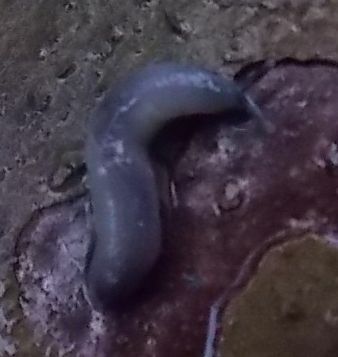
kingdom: Animalia
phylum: Mollusca
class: Gastropoda
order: Stylommatophora
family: Boettgerillidae
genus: Boettgerilla
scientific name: Boettgerilla pallens
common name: Worm slug
